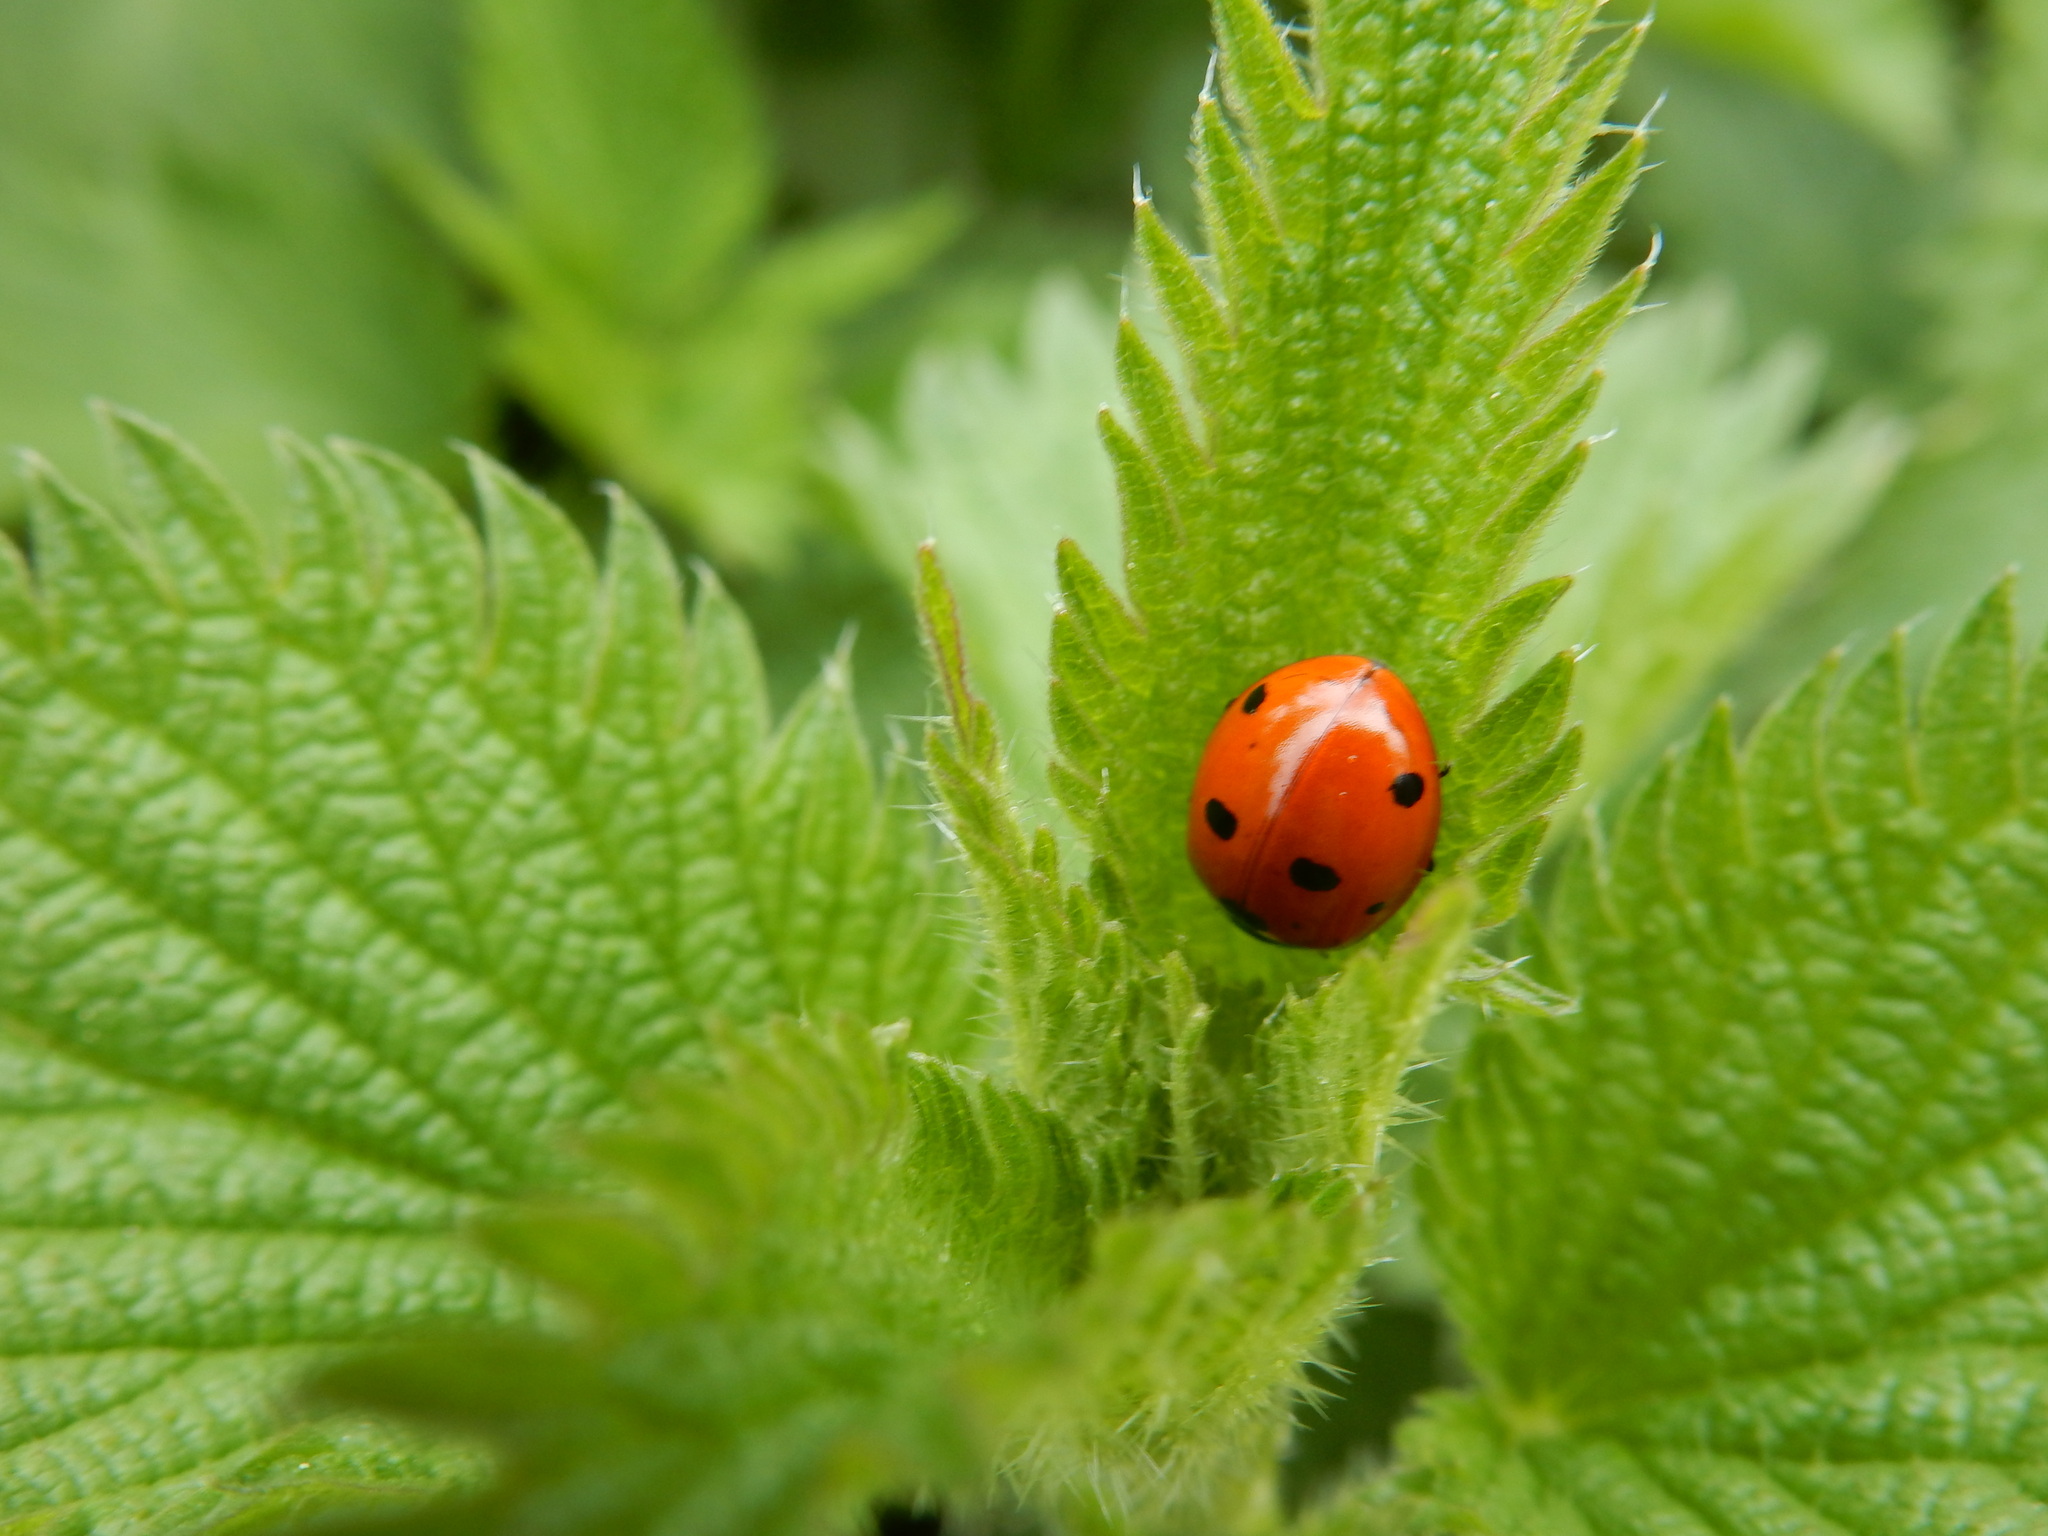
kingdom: Animalia
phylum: Arthropoda
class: Insecta
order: Coleoptera
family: Coccinellidae
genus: Coccinella
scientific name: Coccinella septempunctata
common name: Sevenspotted lady beetle
